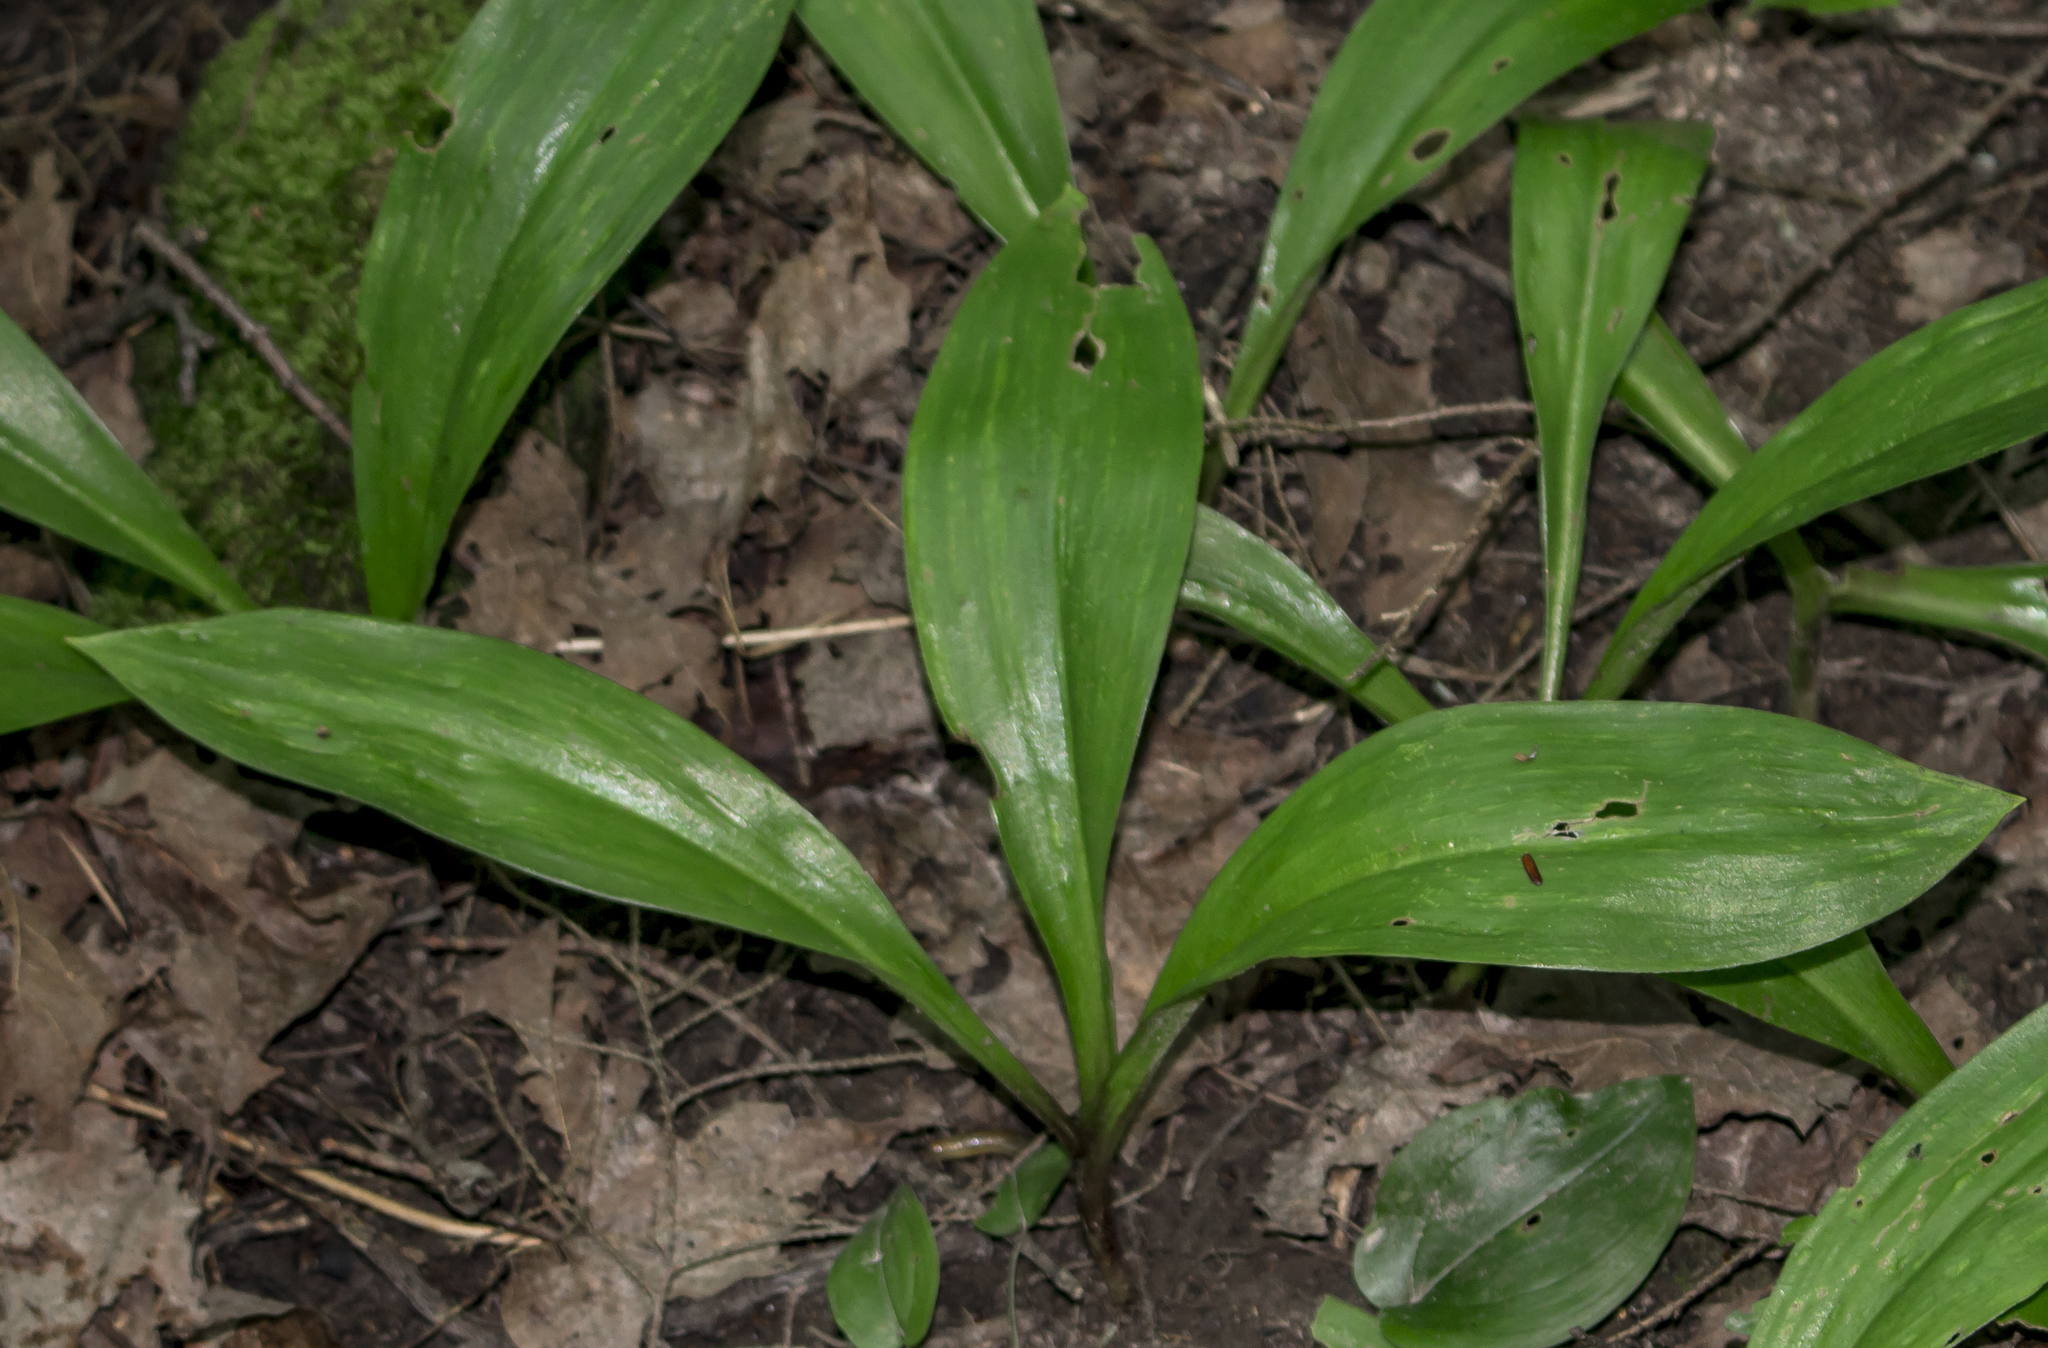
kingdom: Plantae
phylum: Tracheophyta
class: Liliopsida
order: Liliales
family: Liliaceae
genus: Clintonia
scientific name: Clintonia borealis
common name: Yellow clintonia
